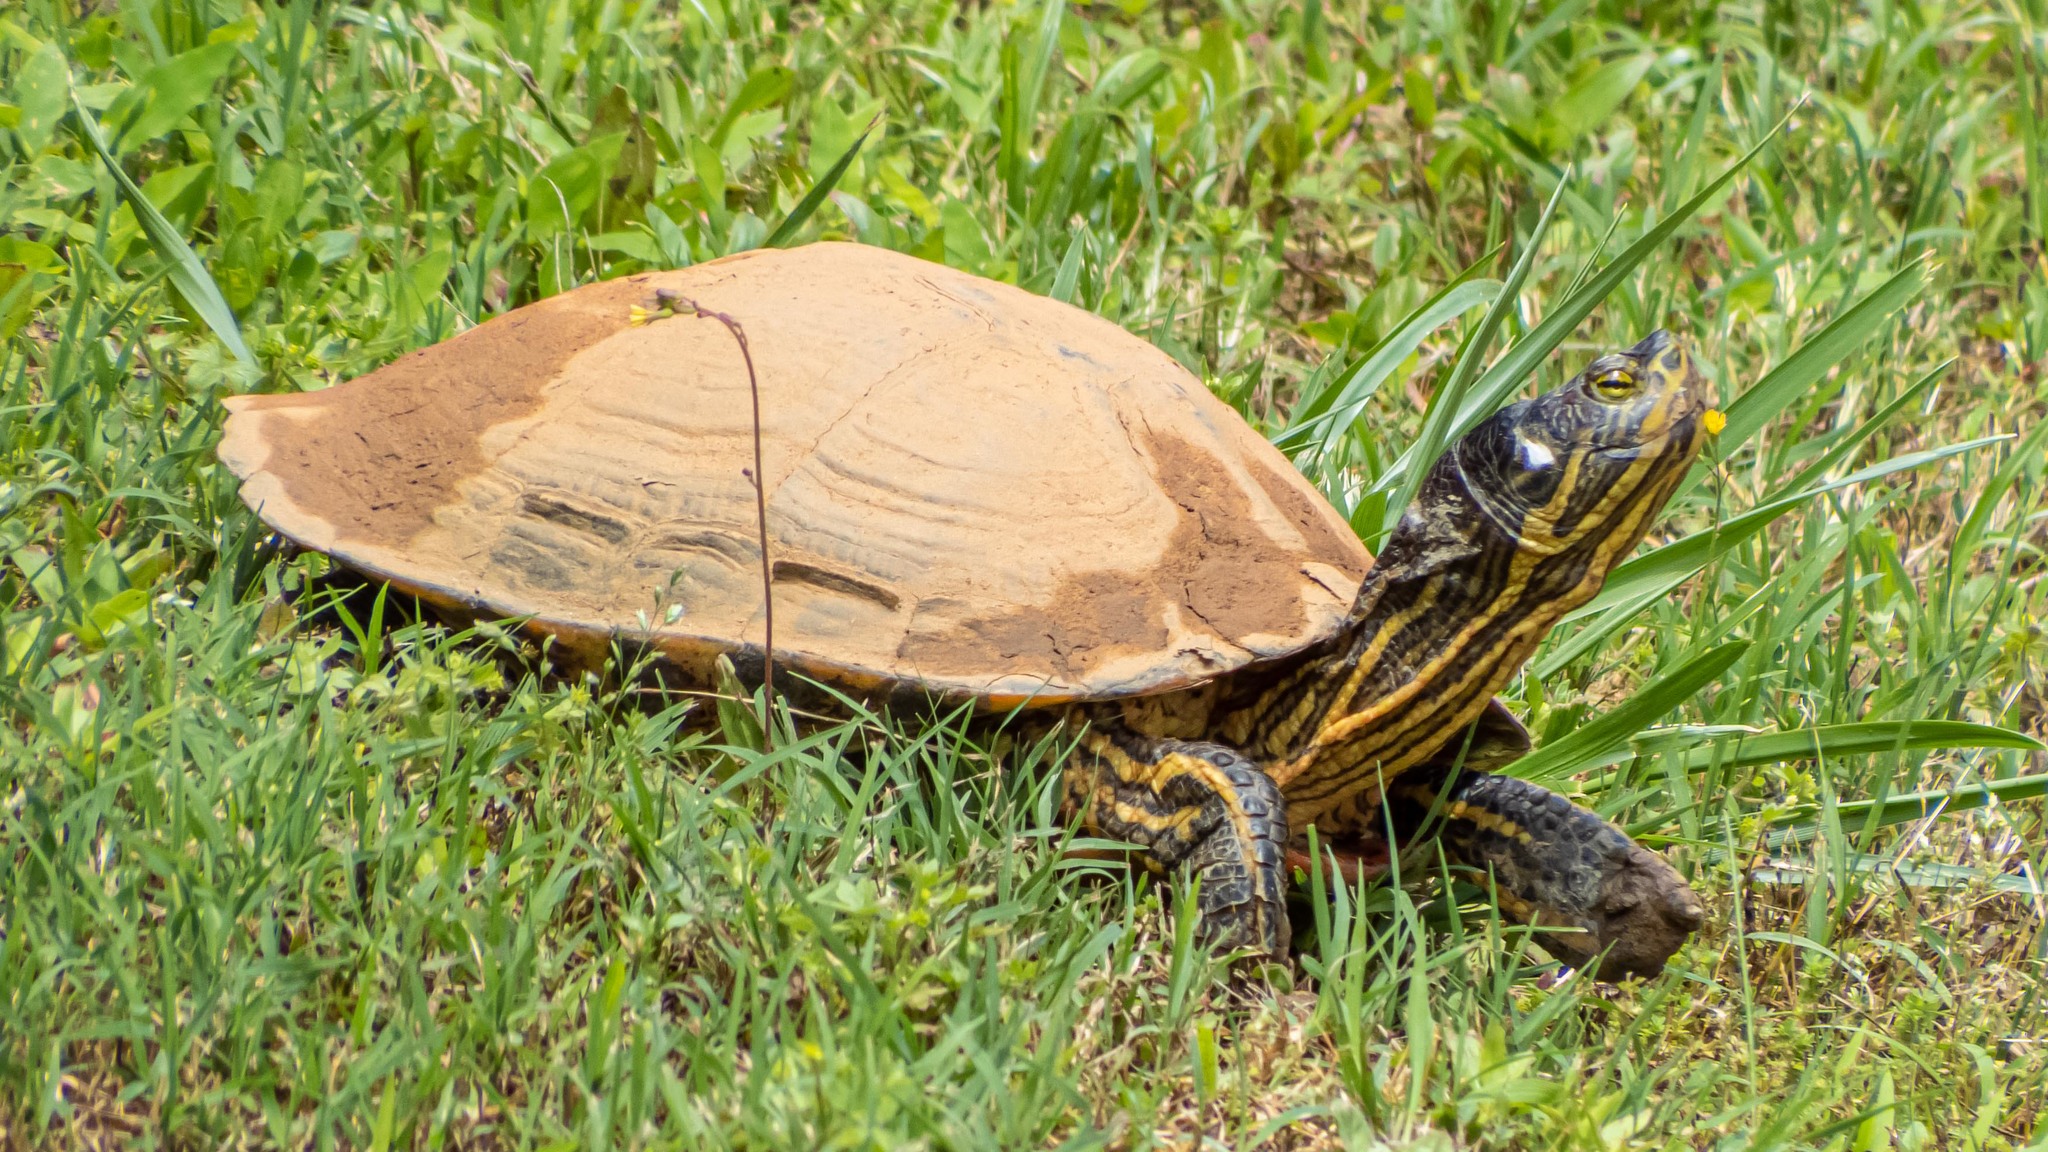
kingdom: Animalia
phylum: Chordata
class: Testudines
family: Emydidae
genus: Trachemys
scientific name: Trachemys scripta
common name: Slider
